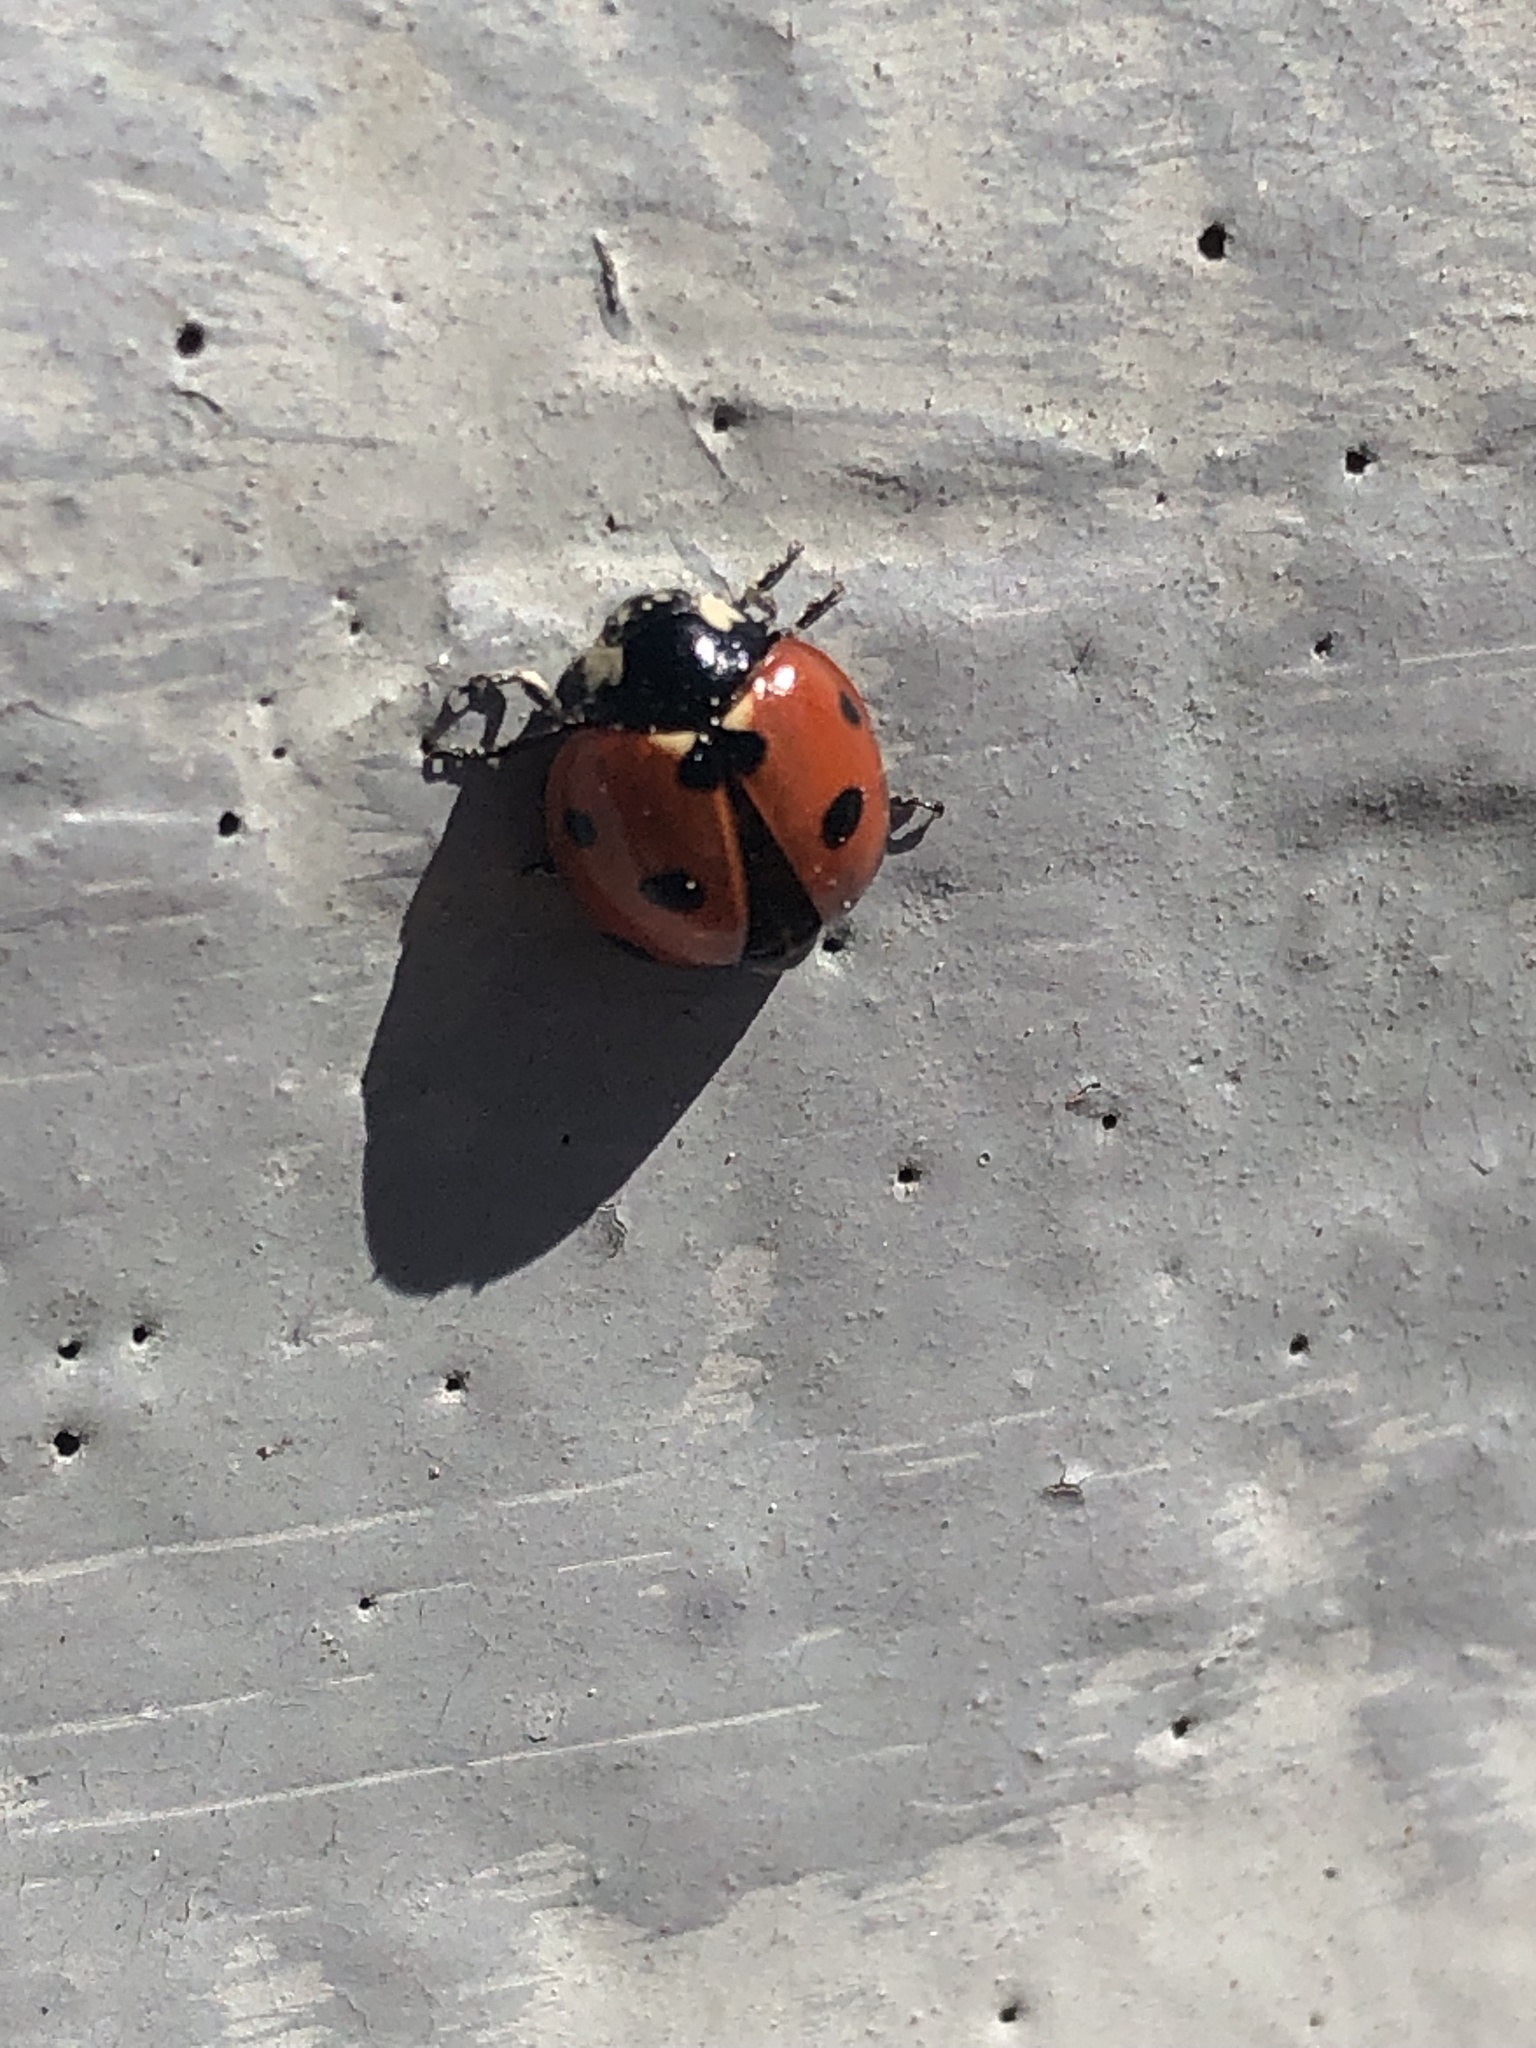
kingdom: Animalia
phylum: Arthropoda
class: Insecta
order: Coleoptera
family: Coccinellidae
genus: Coccinella
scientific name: Coccinella septempunctata
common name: Sevenspotted lady beetle
